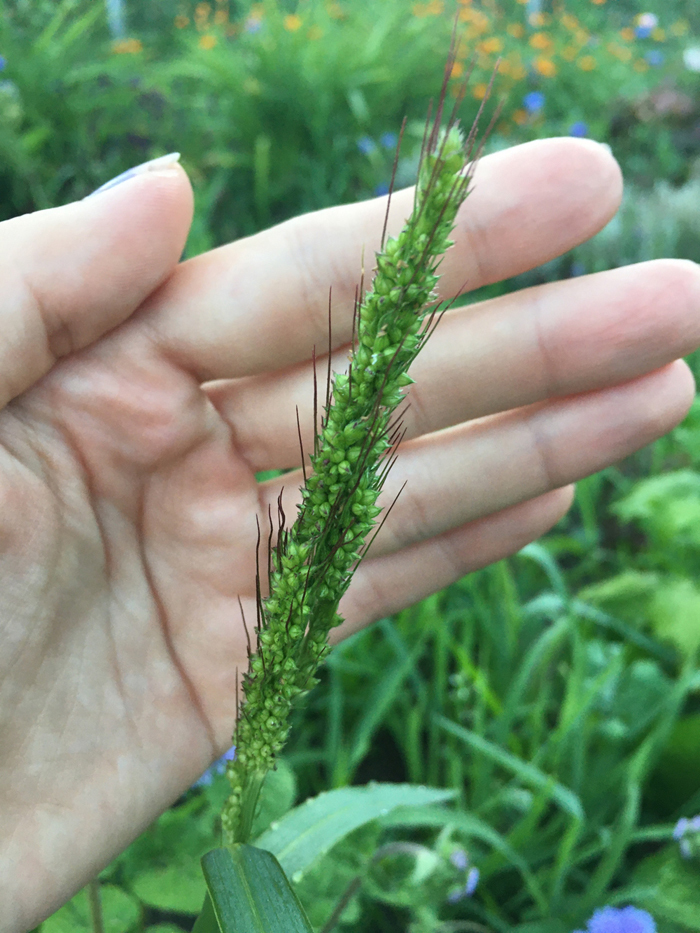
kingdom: Plantae
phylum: Tracheophyta
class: Liliopsida
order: Poales
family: Poaceae
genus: Echinochloa
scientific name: Echinochloa crus-galli
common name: Cockspur
